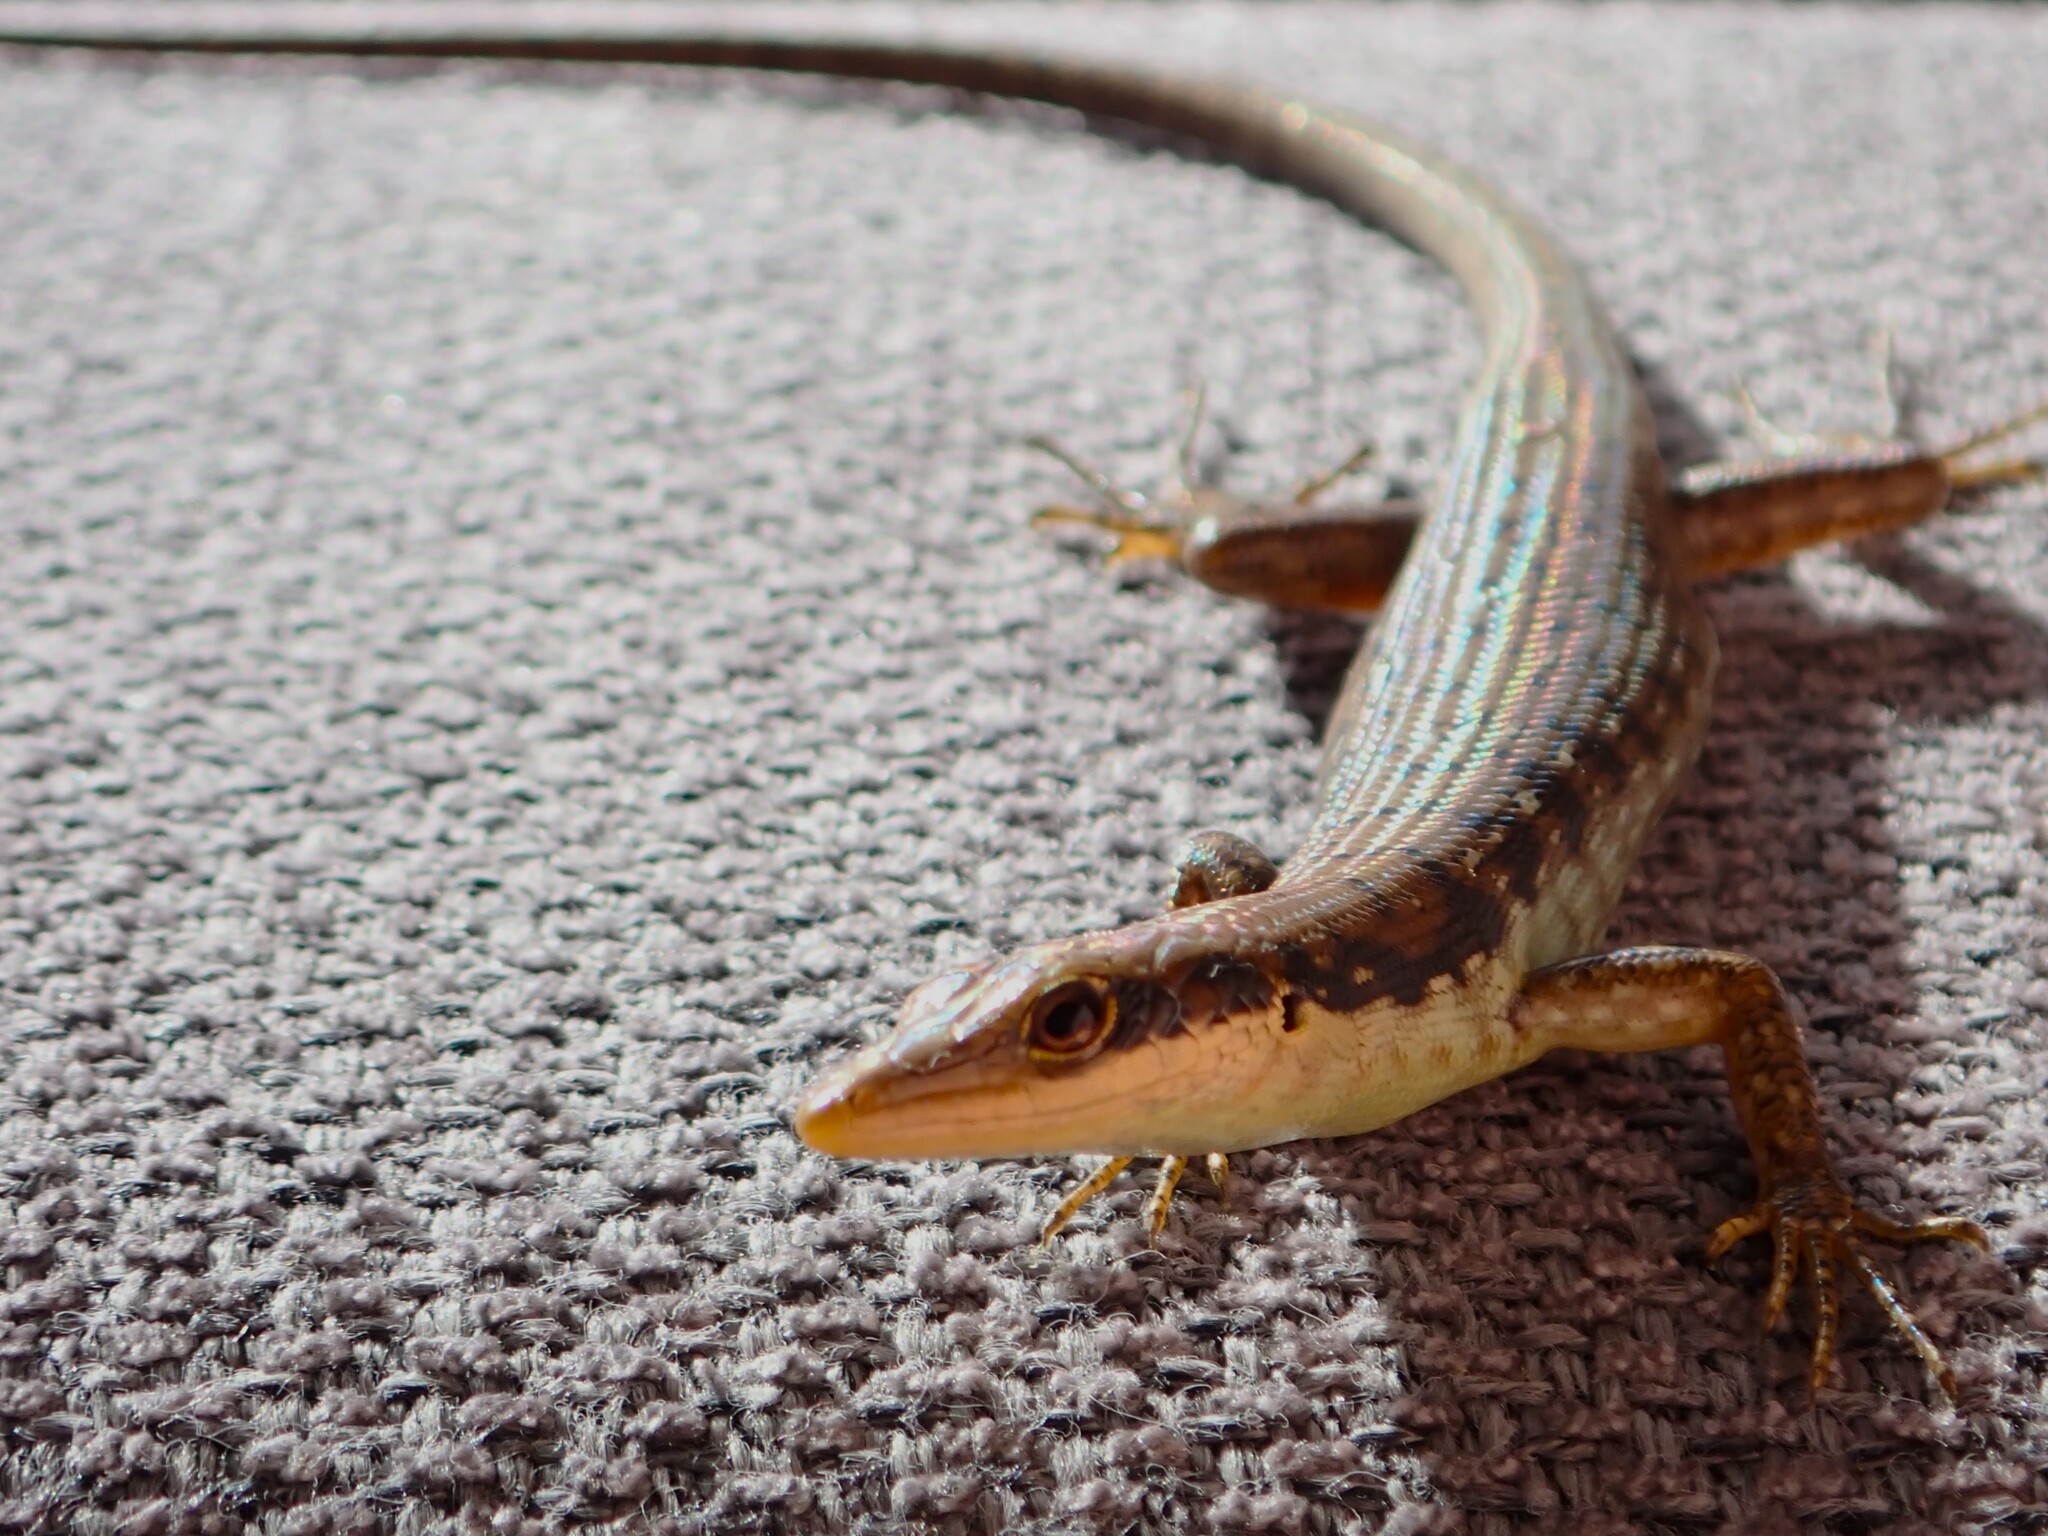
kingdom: Animalia
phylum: Chordata
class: Squamata
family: Scincidae
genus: Emoia
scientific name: Emoia tuitarere
